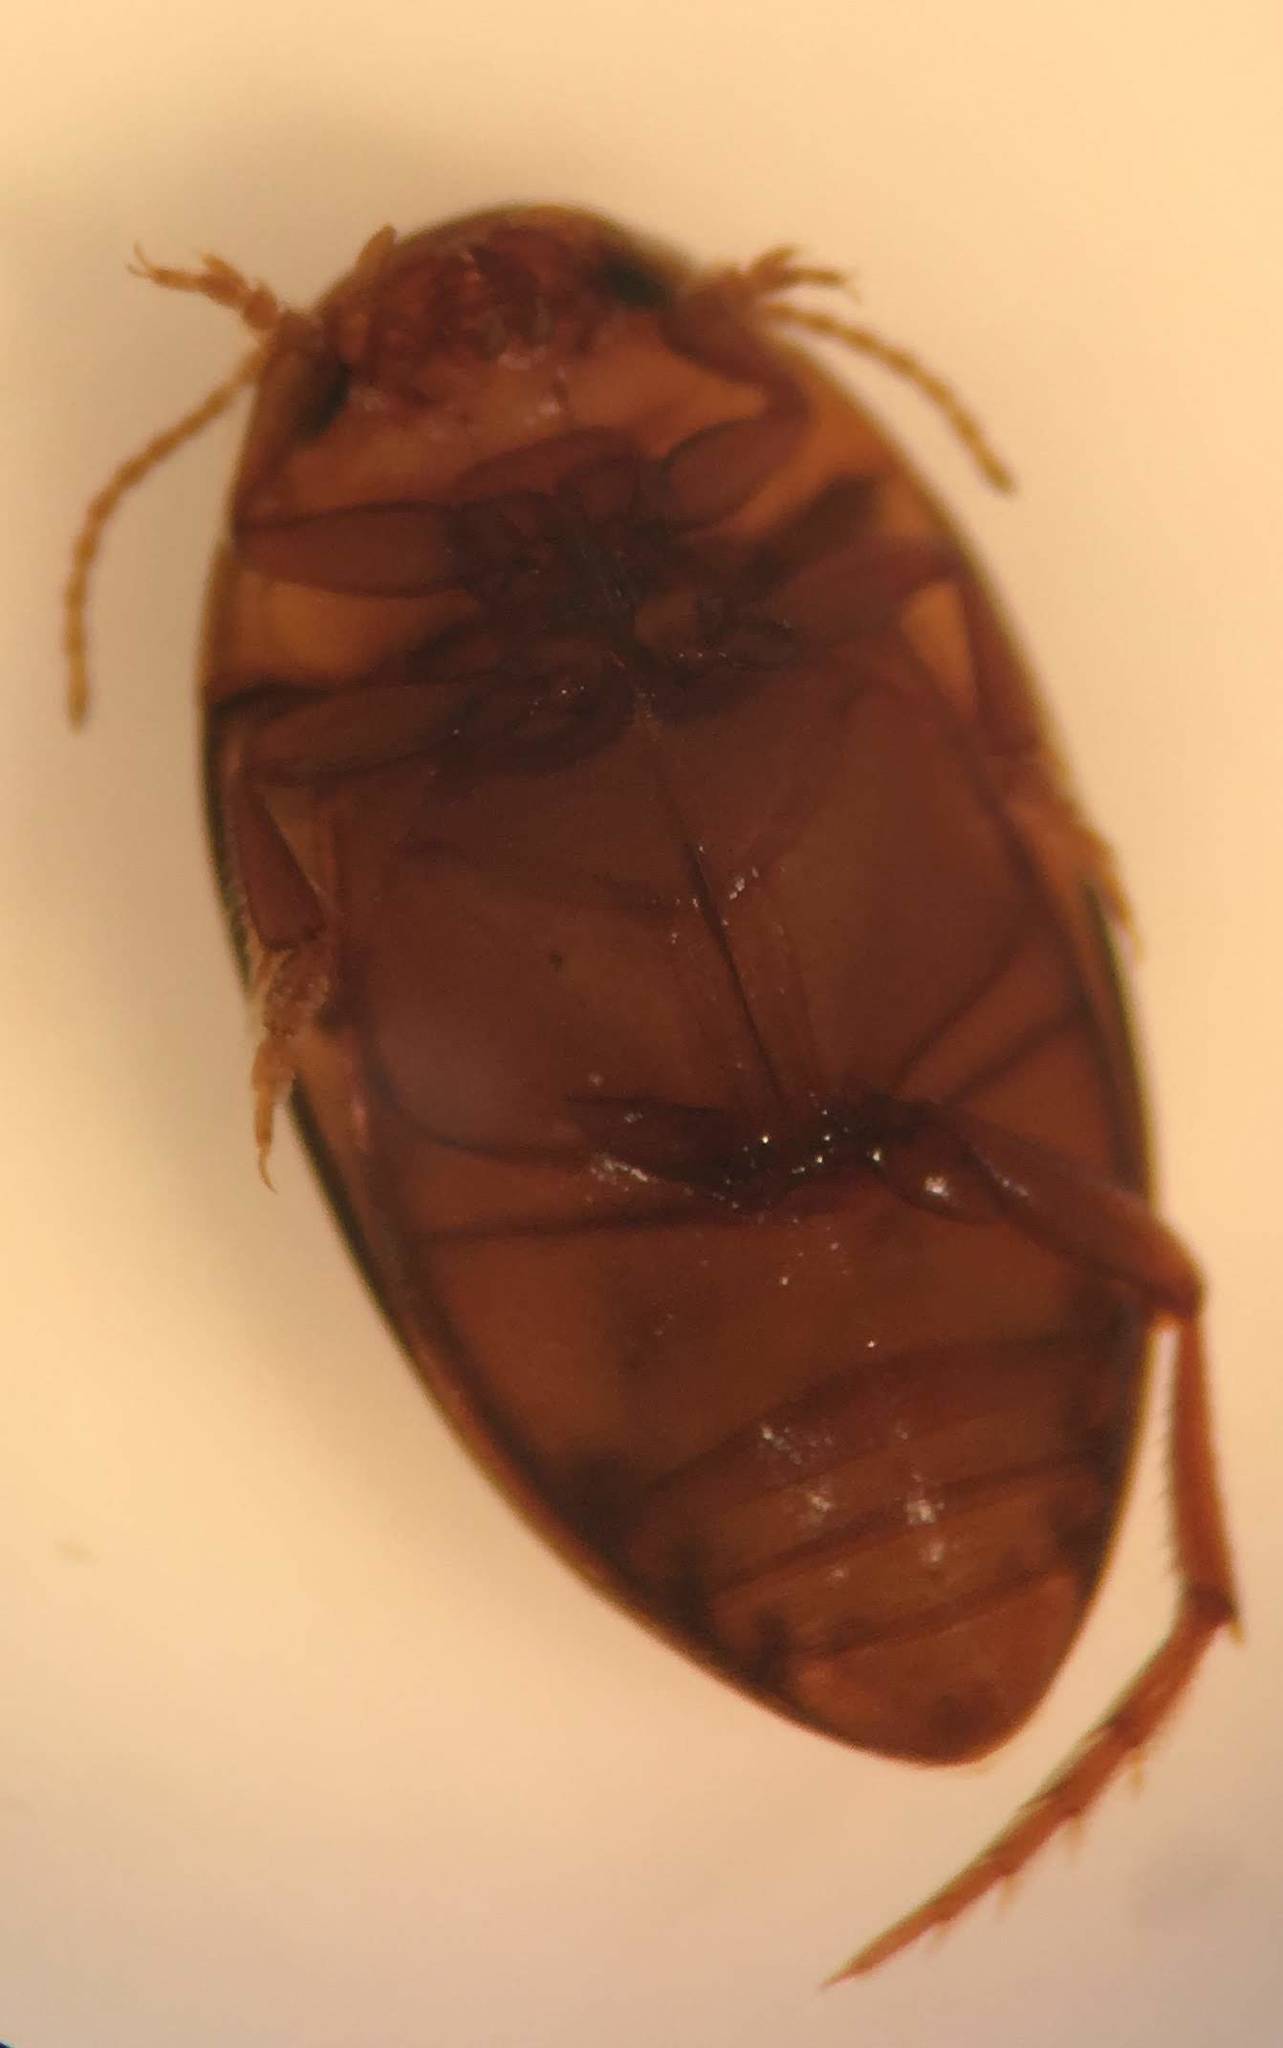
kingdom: Animalia
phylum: Arthropoda
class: Insecta
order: Coleoptera
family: Dytiscidae
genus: Neoporus
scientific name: Neoporus carolinus
